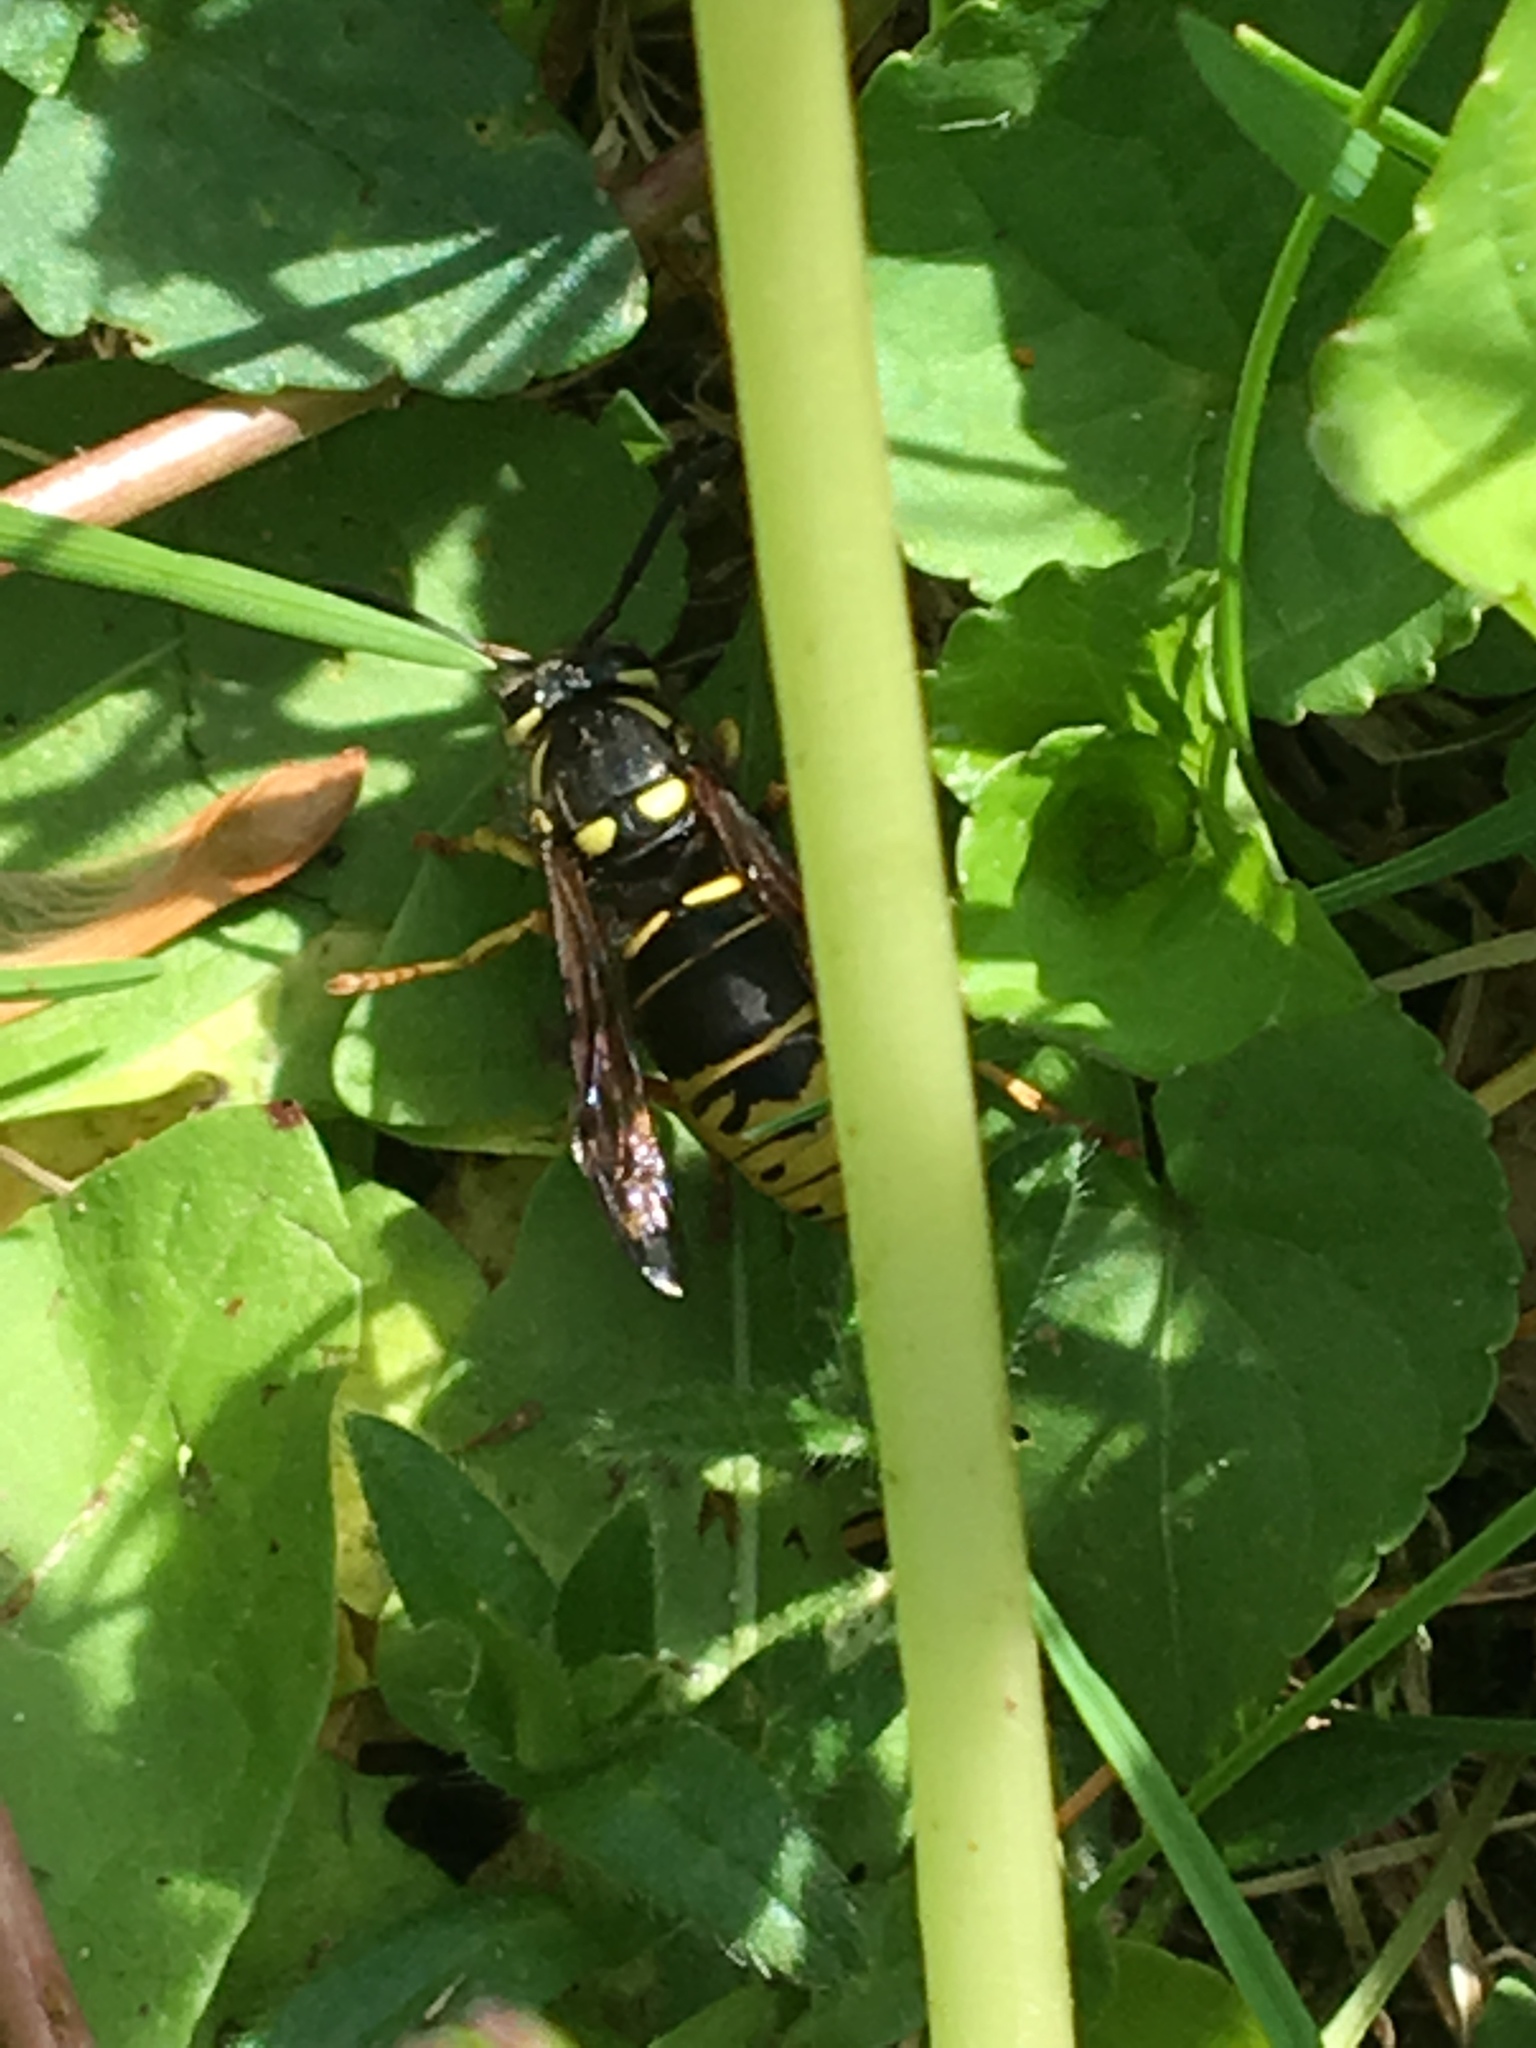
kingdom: Animalia
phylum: Arthropoda
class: Insecta
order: Hymenoptera
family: Vespidae
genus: Vespula
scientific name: Vespula vidua
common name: Widow yellowjacket
